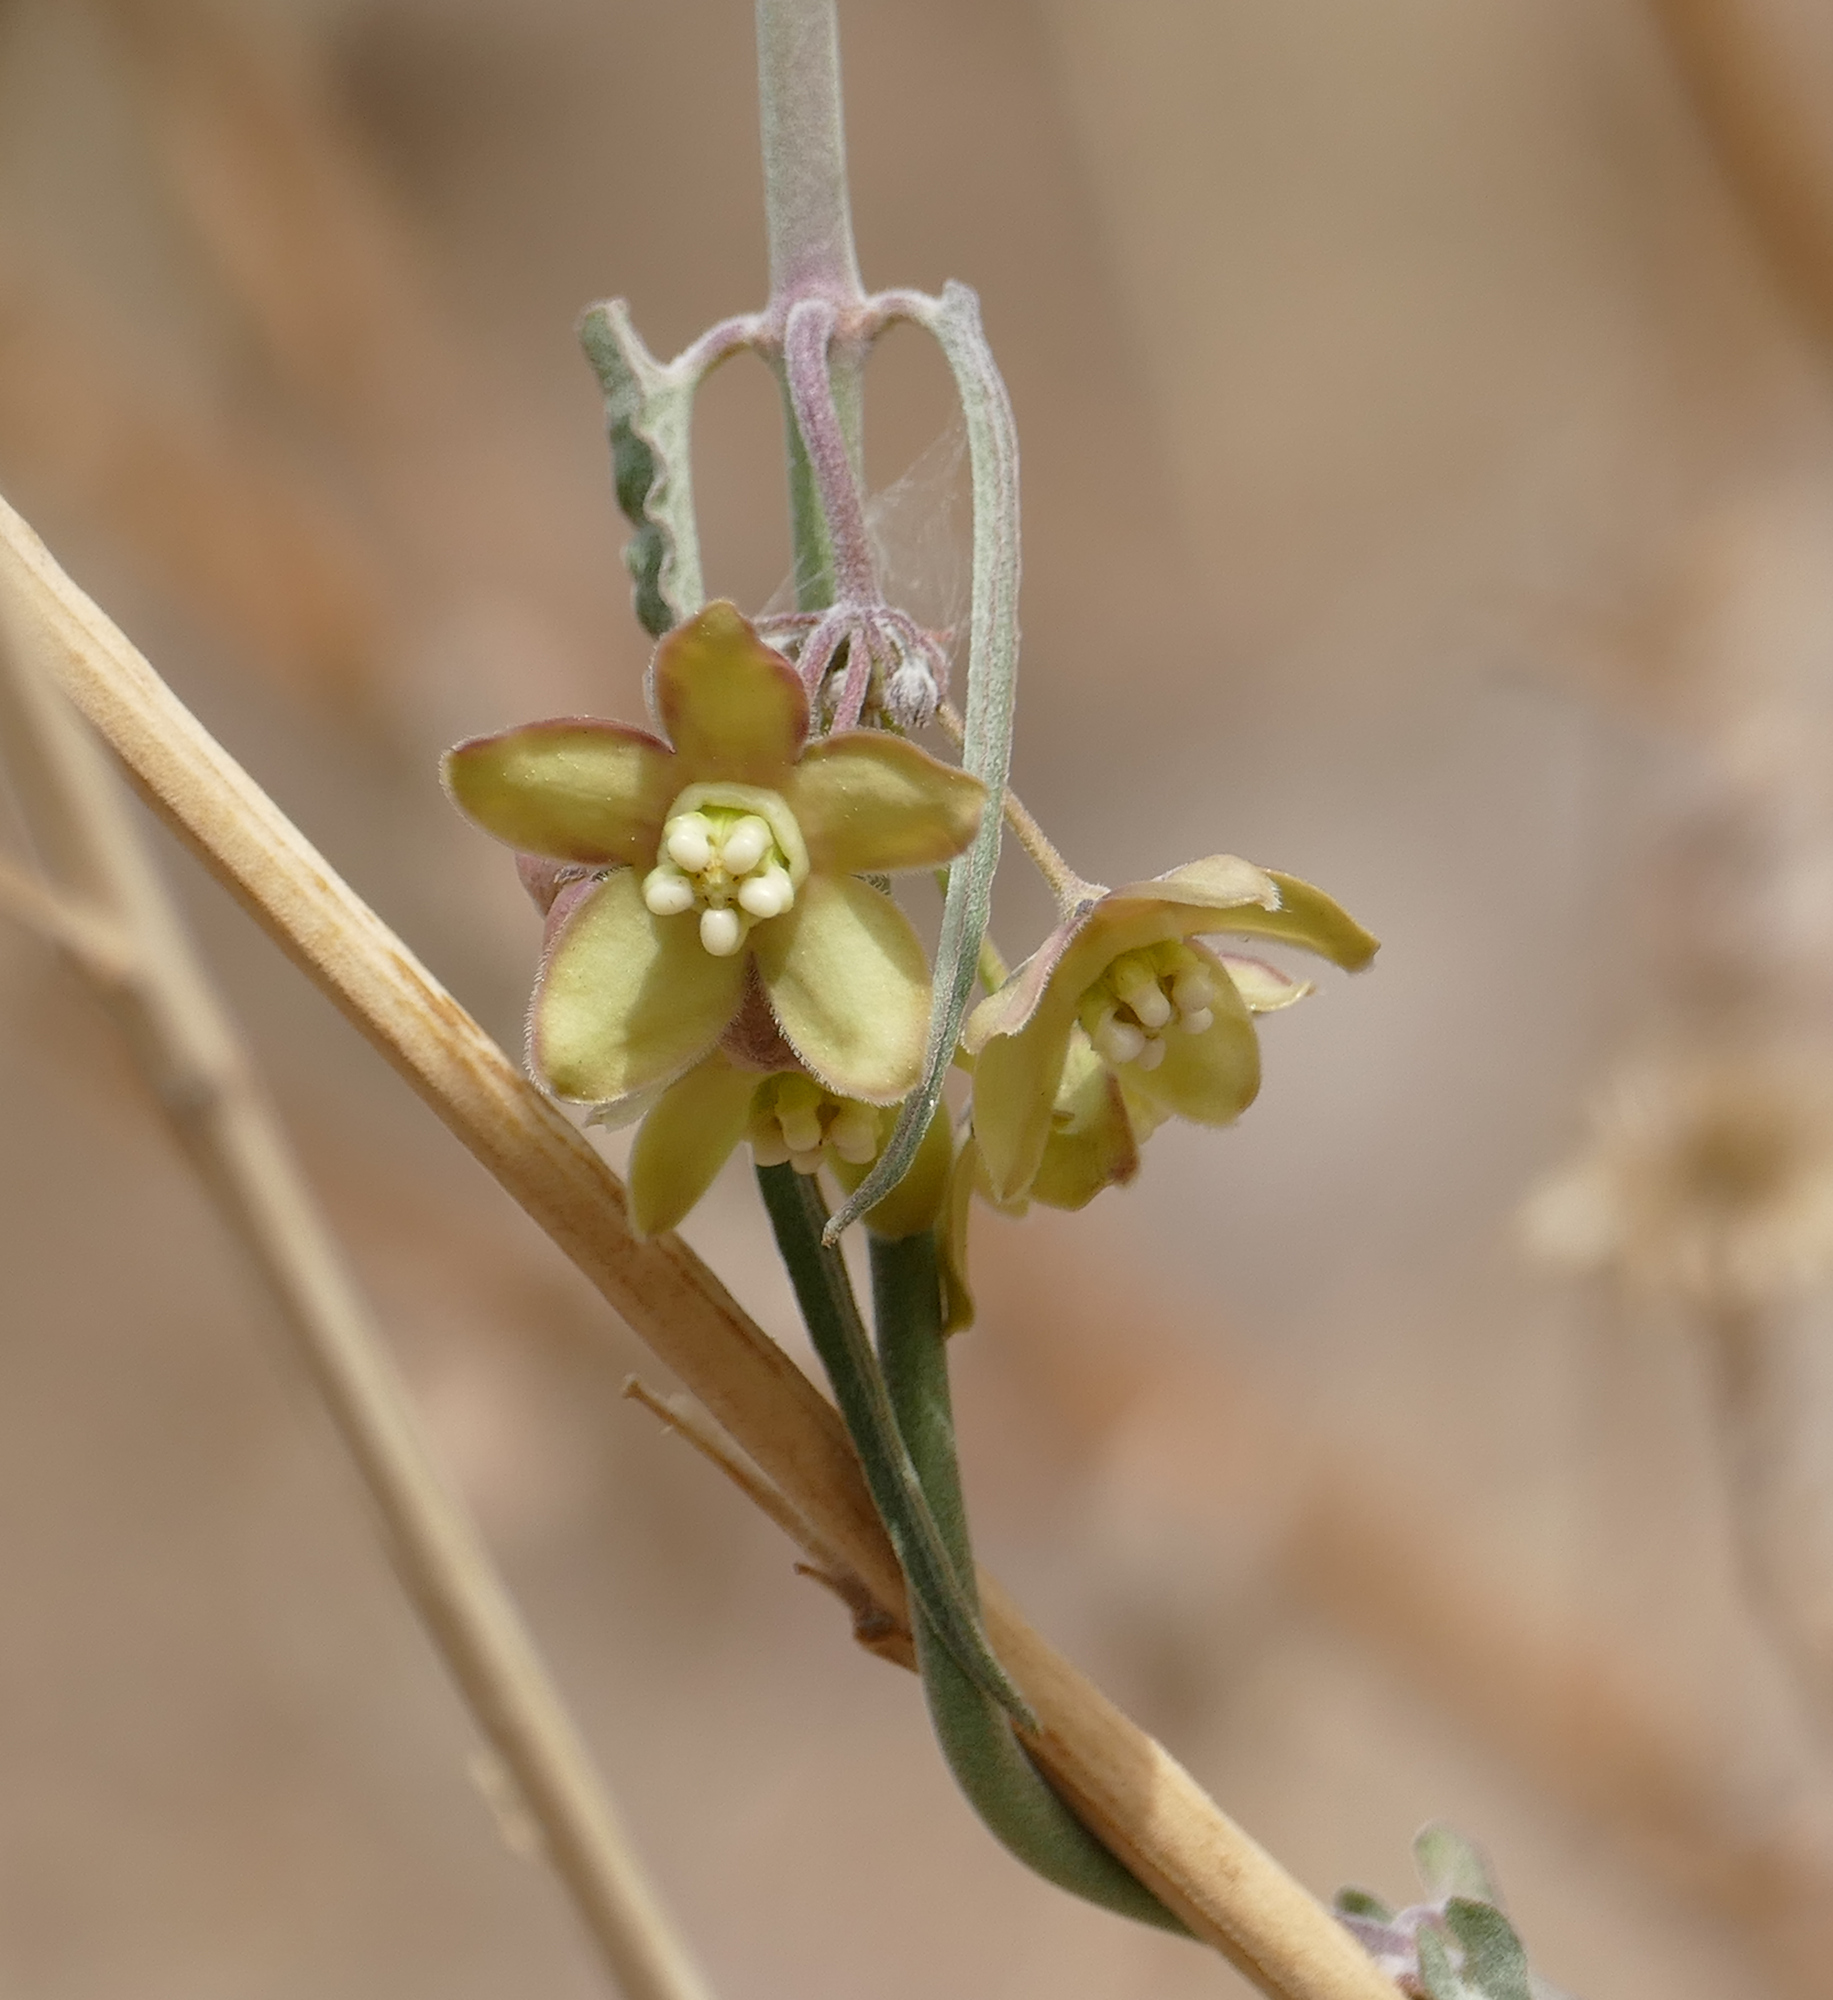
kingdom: Plantae
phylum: Tracheophyta
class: Magnoliopsida
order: Gentianales
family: Apocynaceae
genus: Funastrum
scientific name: Funastrum crispum
